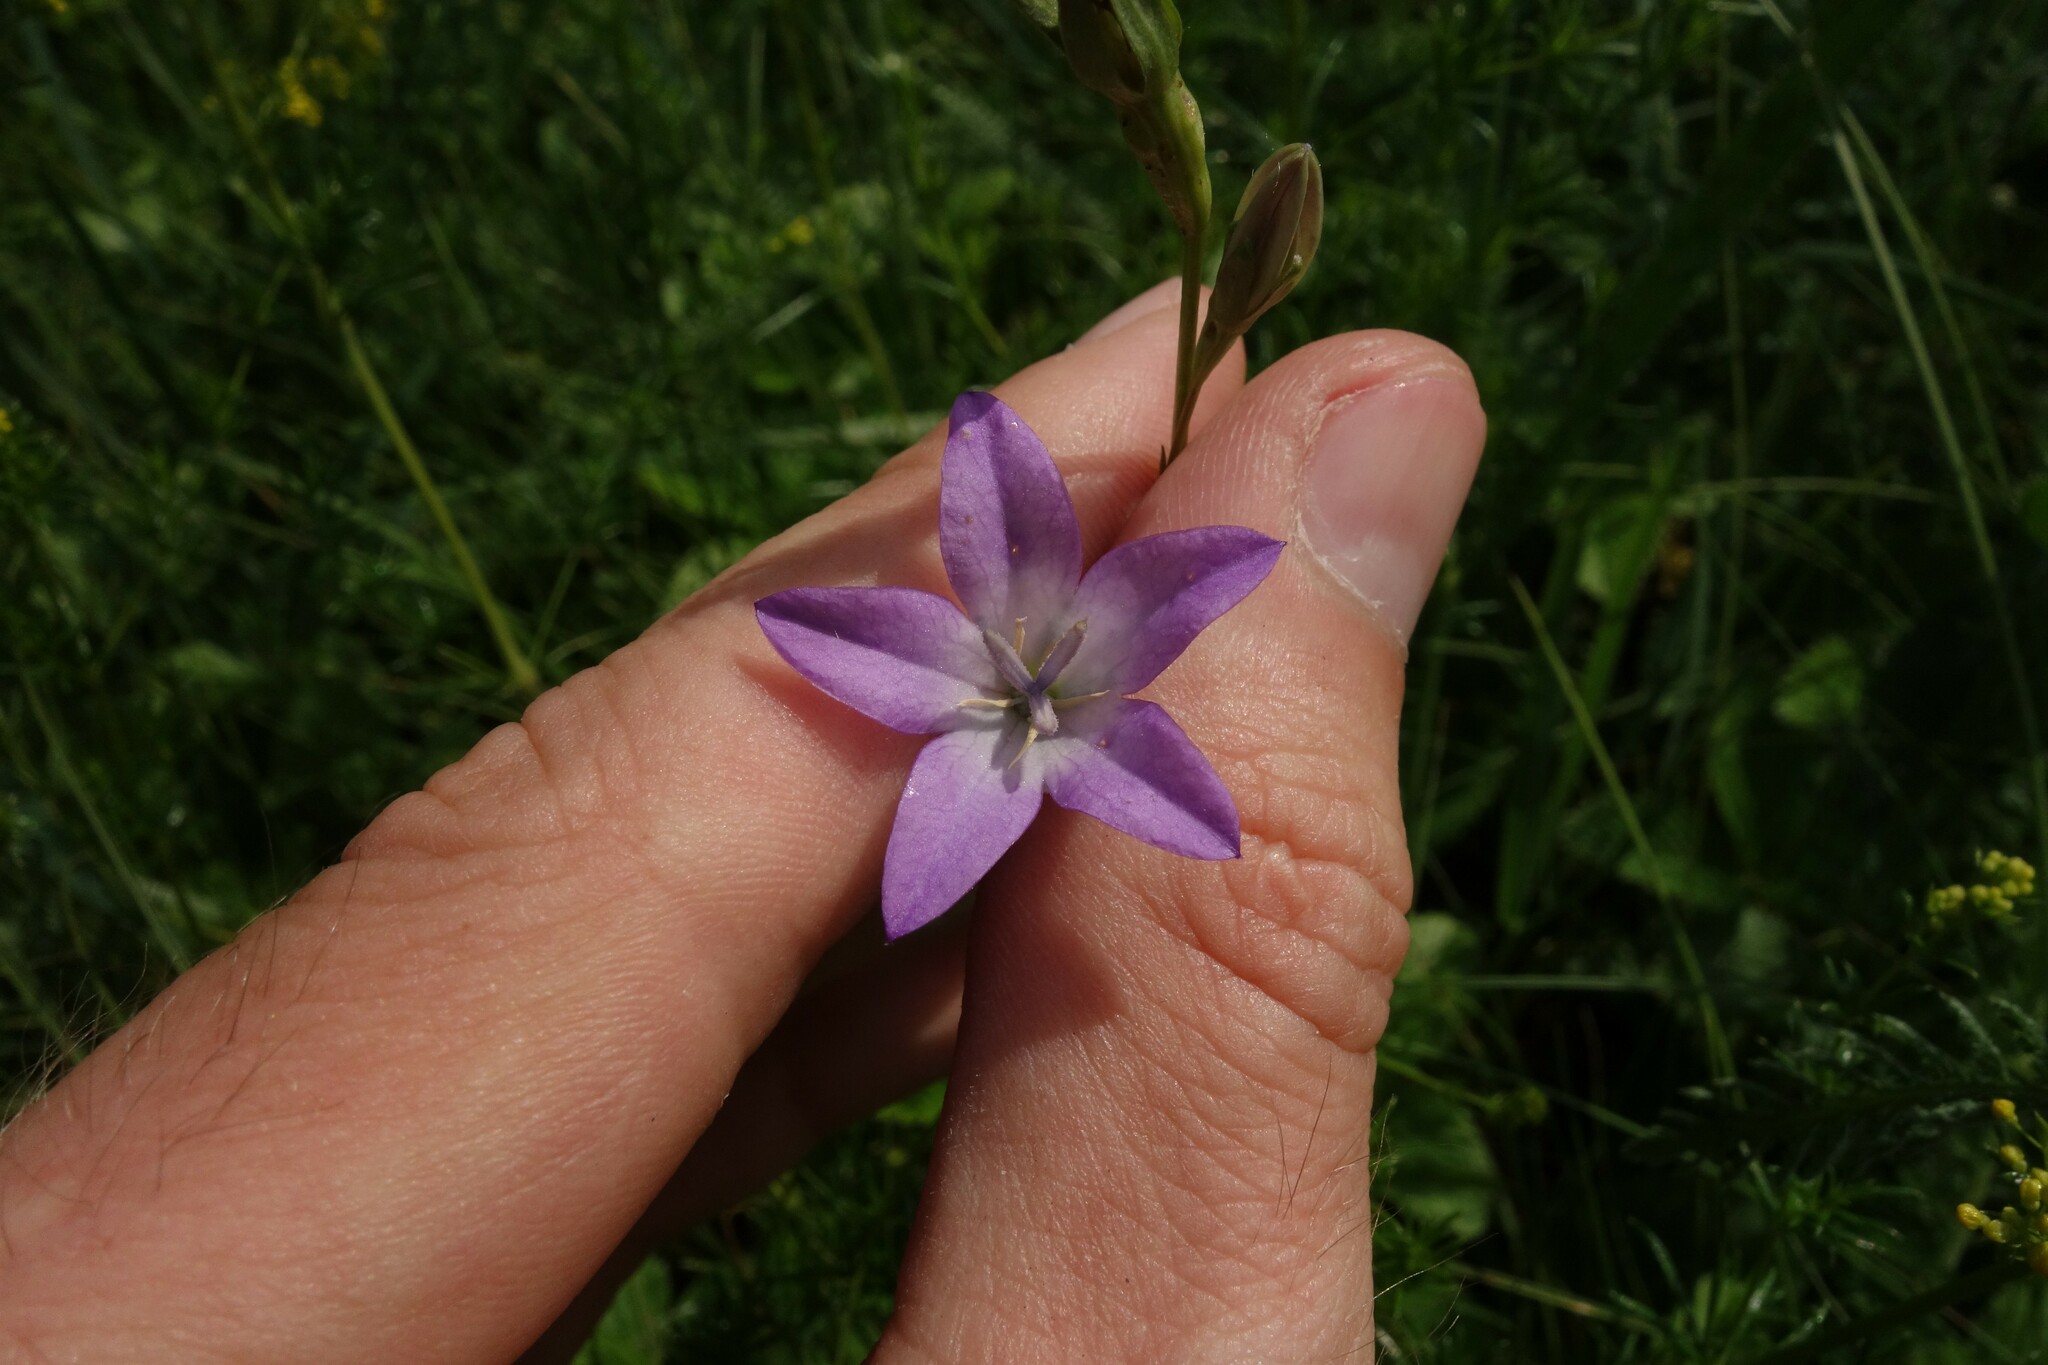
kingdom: Plantae
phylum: Tracheophyta
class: Magnoliopsida
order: Asterales
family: Campanulaceae
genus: Campanula
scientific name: Campanula stevenii
